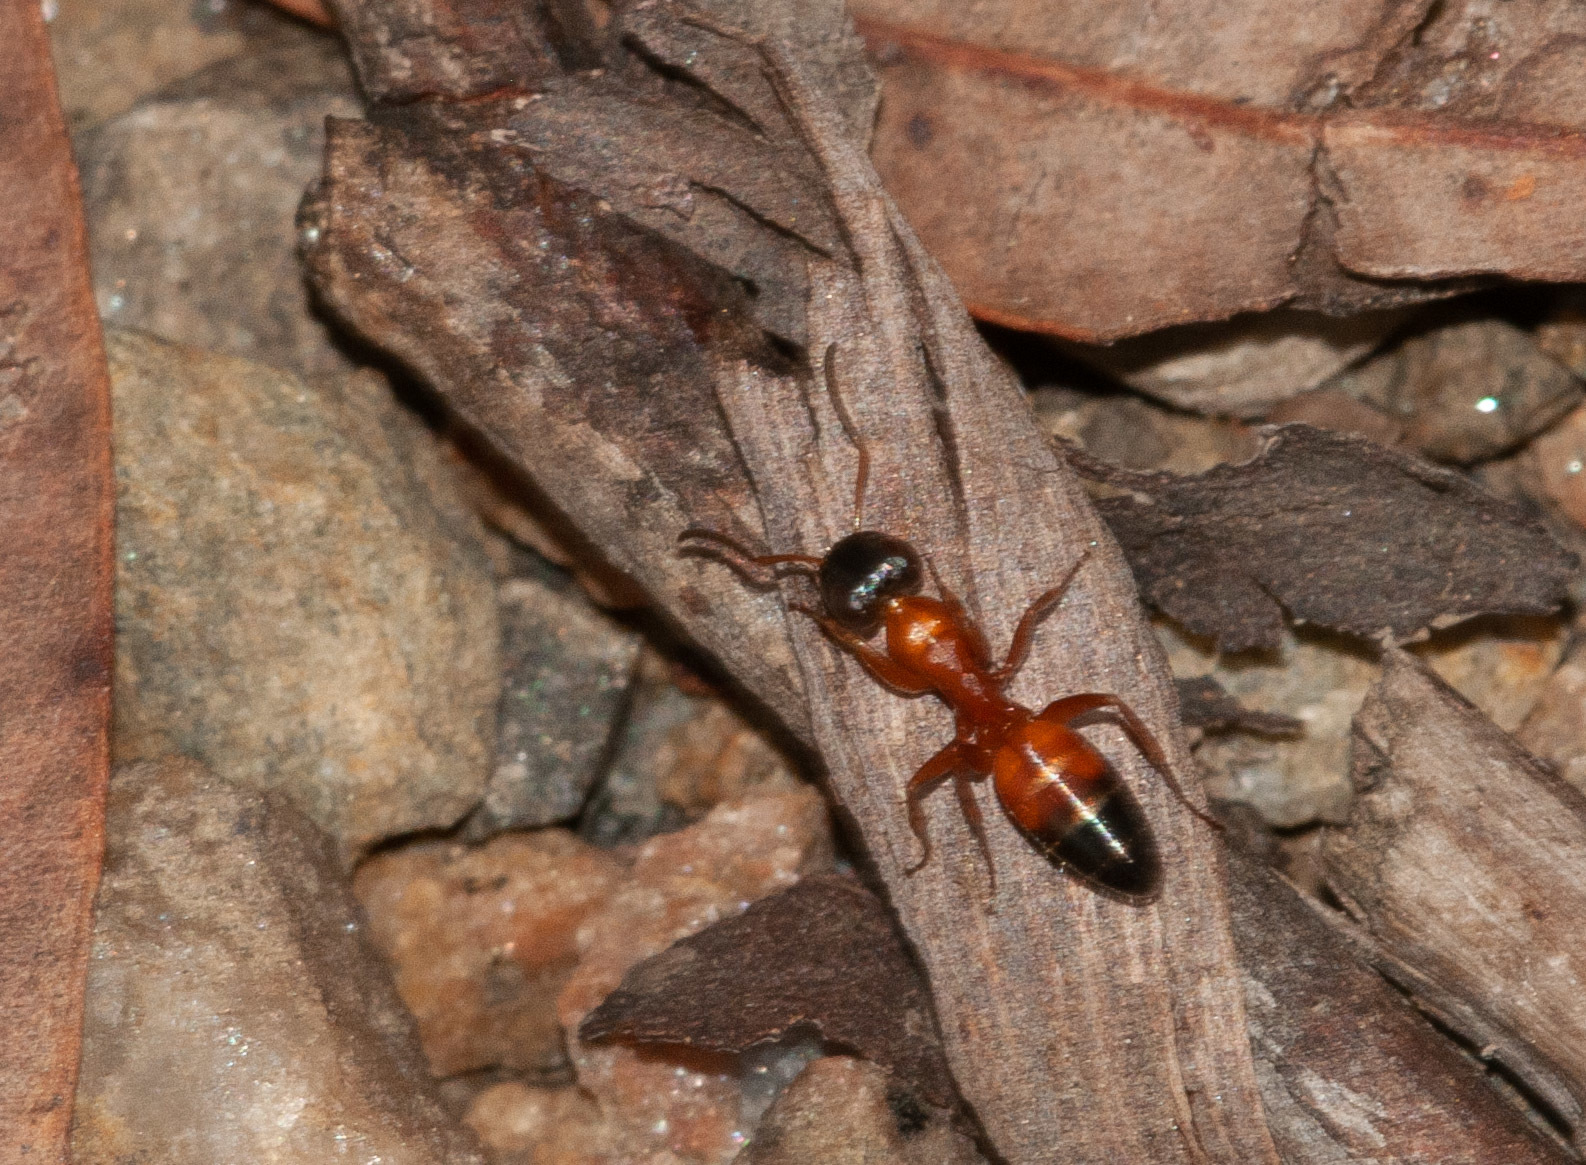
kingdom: Animalia
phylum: Arthropoda
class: Insecta
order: Hymenoptera
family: Formicidae
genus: Opisthopsis
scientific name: Opisthopsis rufithorax
